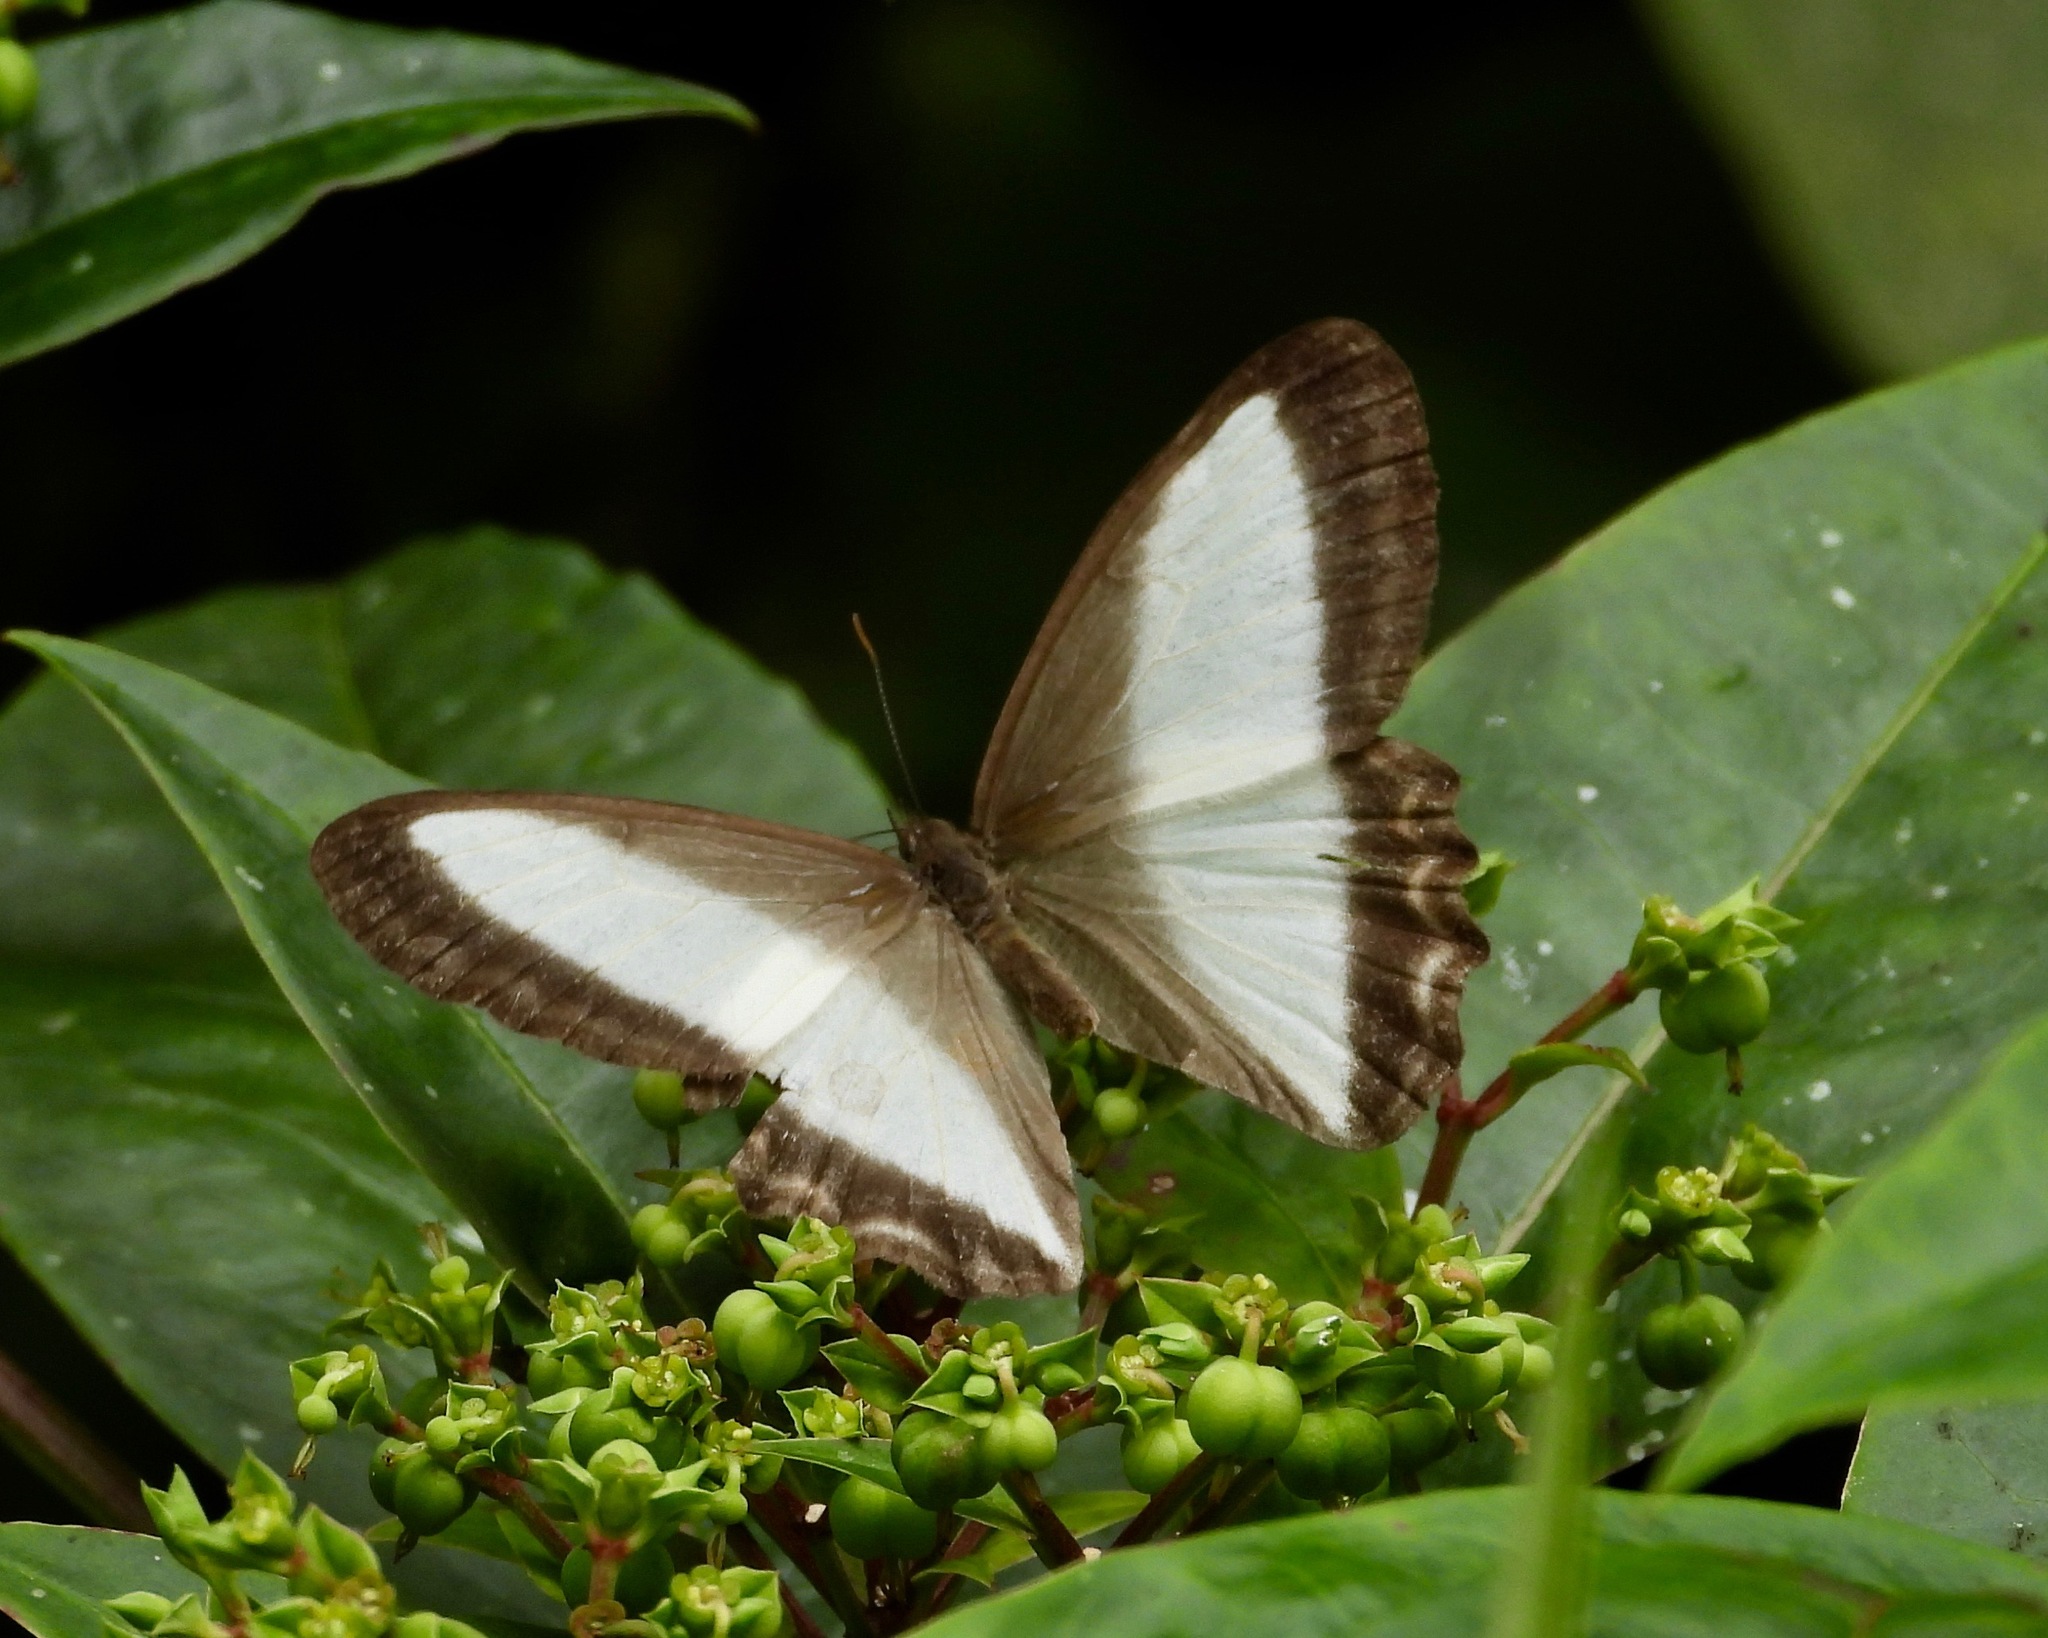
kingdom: Animalia
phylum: Arthropoda
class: Insecta
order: Lepidoptera
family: Nymphalidae
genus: Oressinoma
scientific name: Oressinoma typhla
